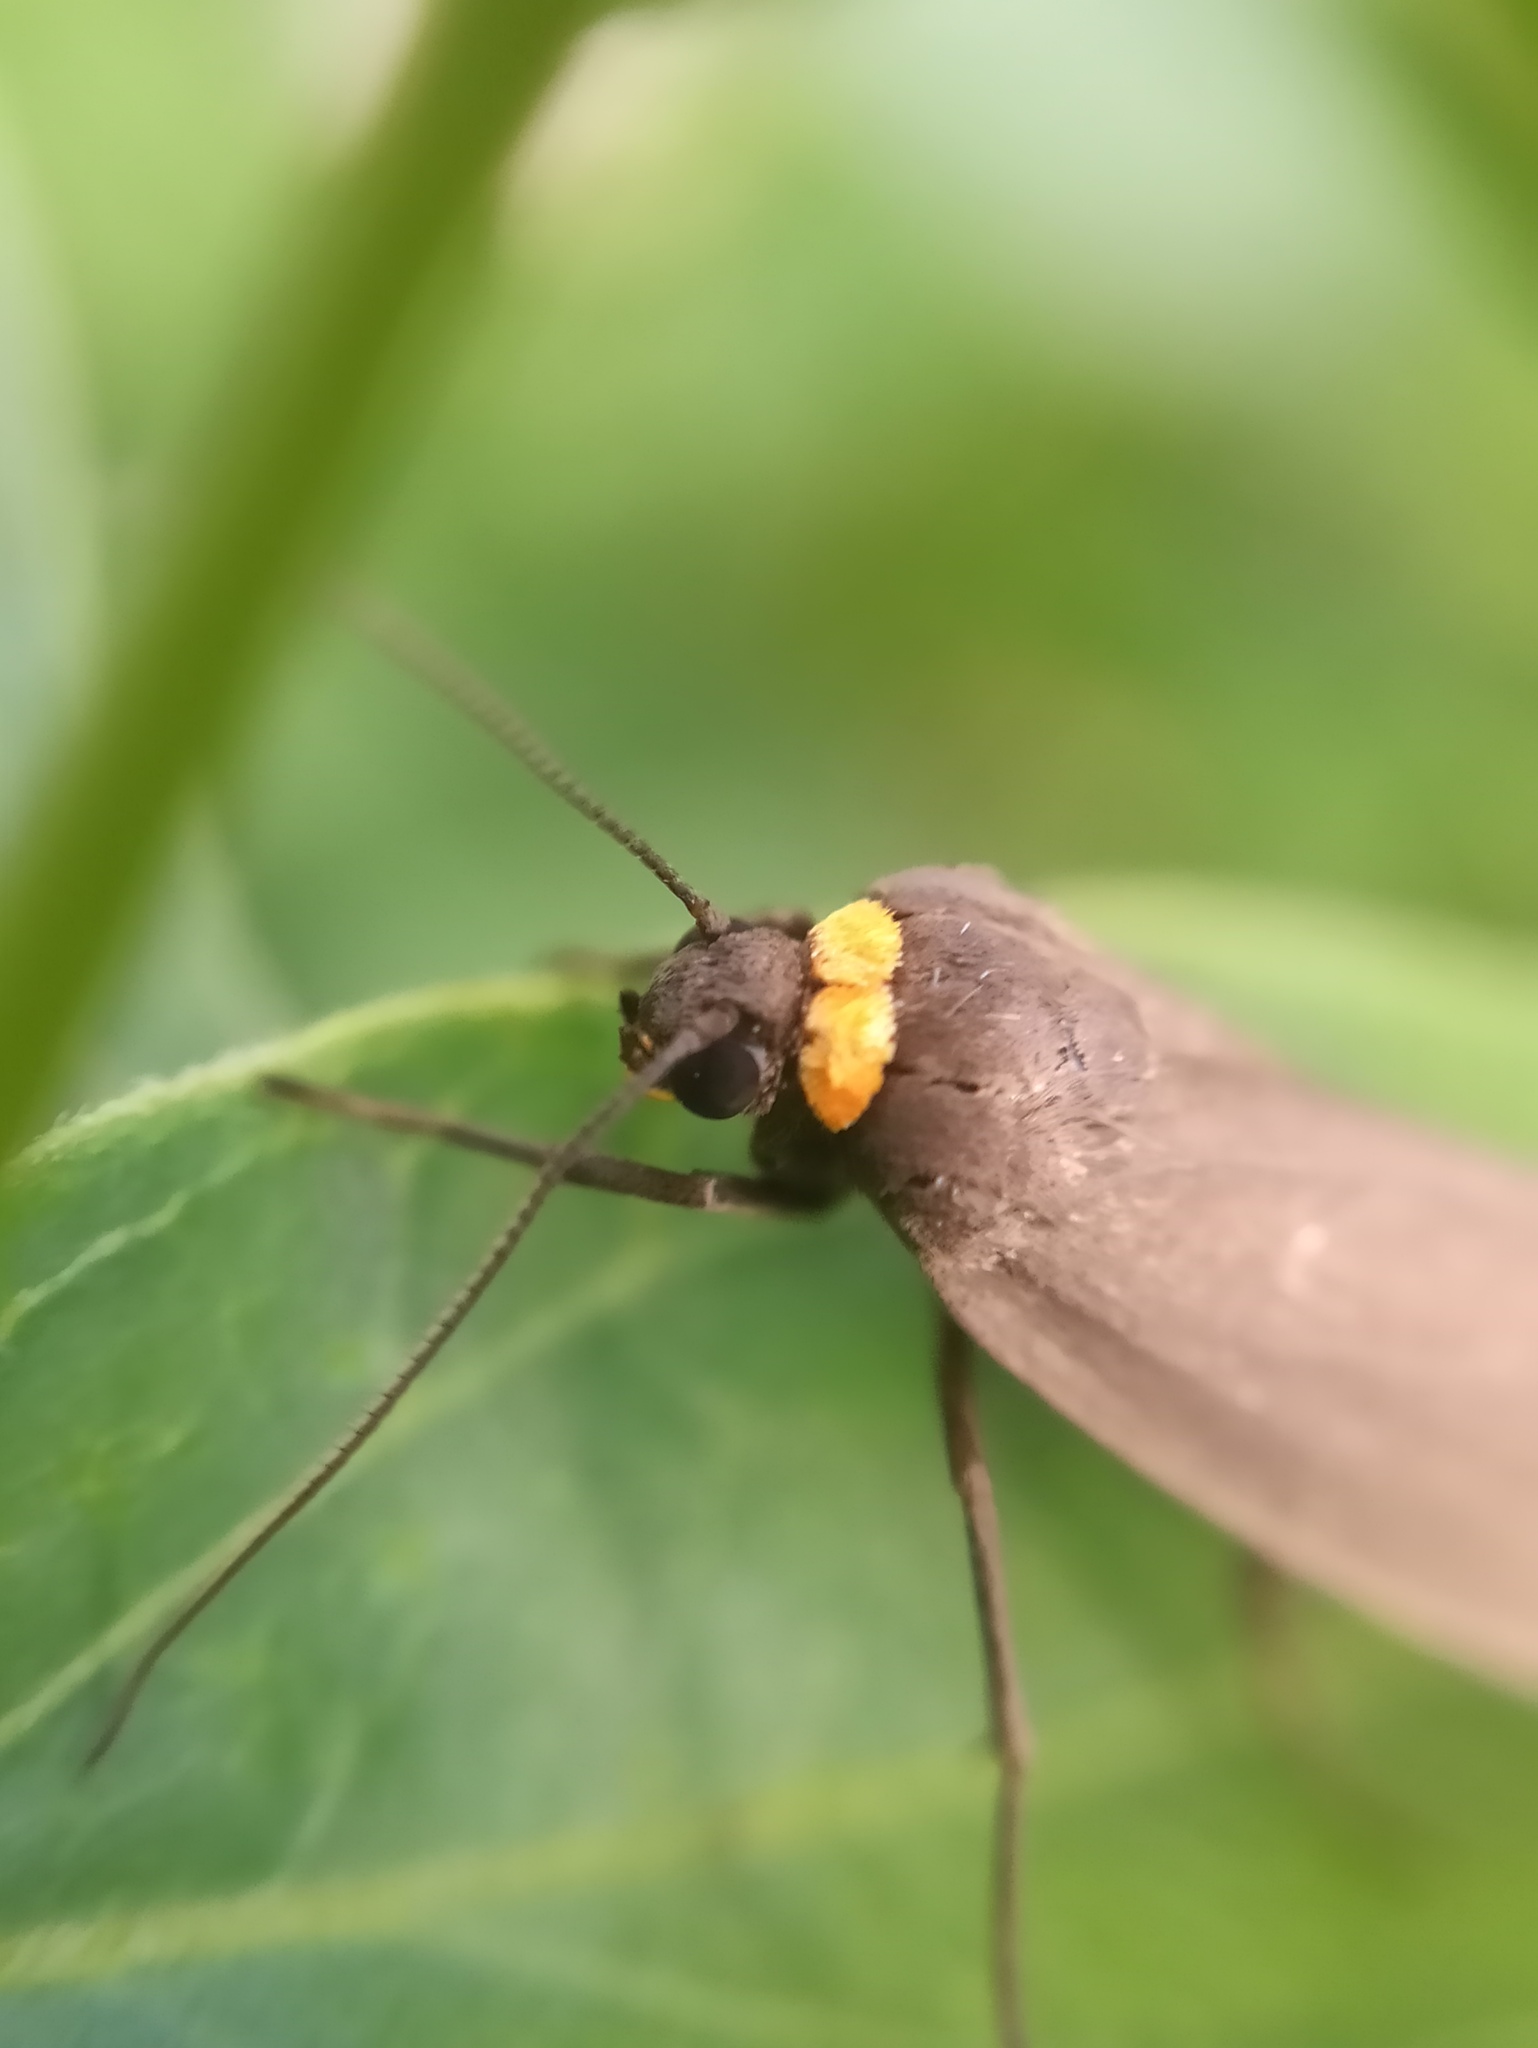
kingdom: Animalia
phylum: Arthropoda
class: Insecta
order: Lepidoptera
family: Erebidae
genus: Atolmis
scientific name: Atolmis rubricollis
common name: Red-necked footman
